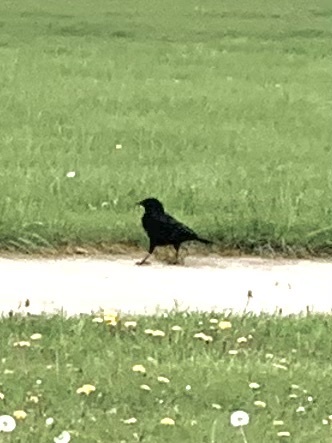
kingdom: Animalia
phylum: Chordata
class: Aves
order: Passeriformes
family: Corvidae
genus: Corvus
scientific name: Corvus brachyrhynchos
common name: American crow
